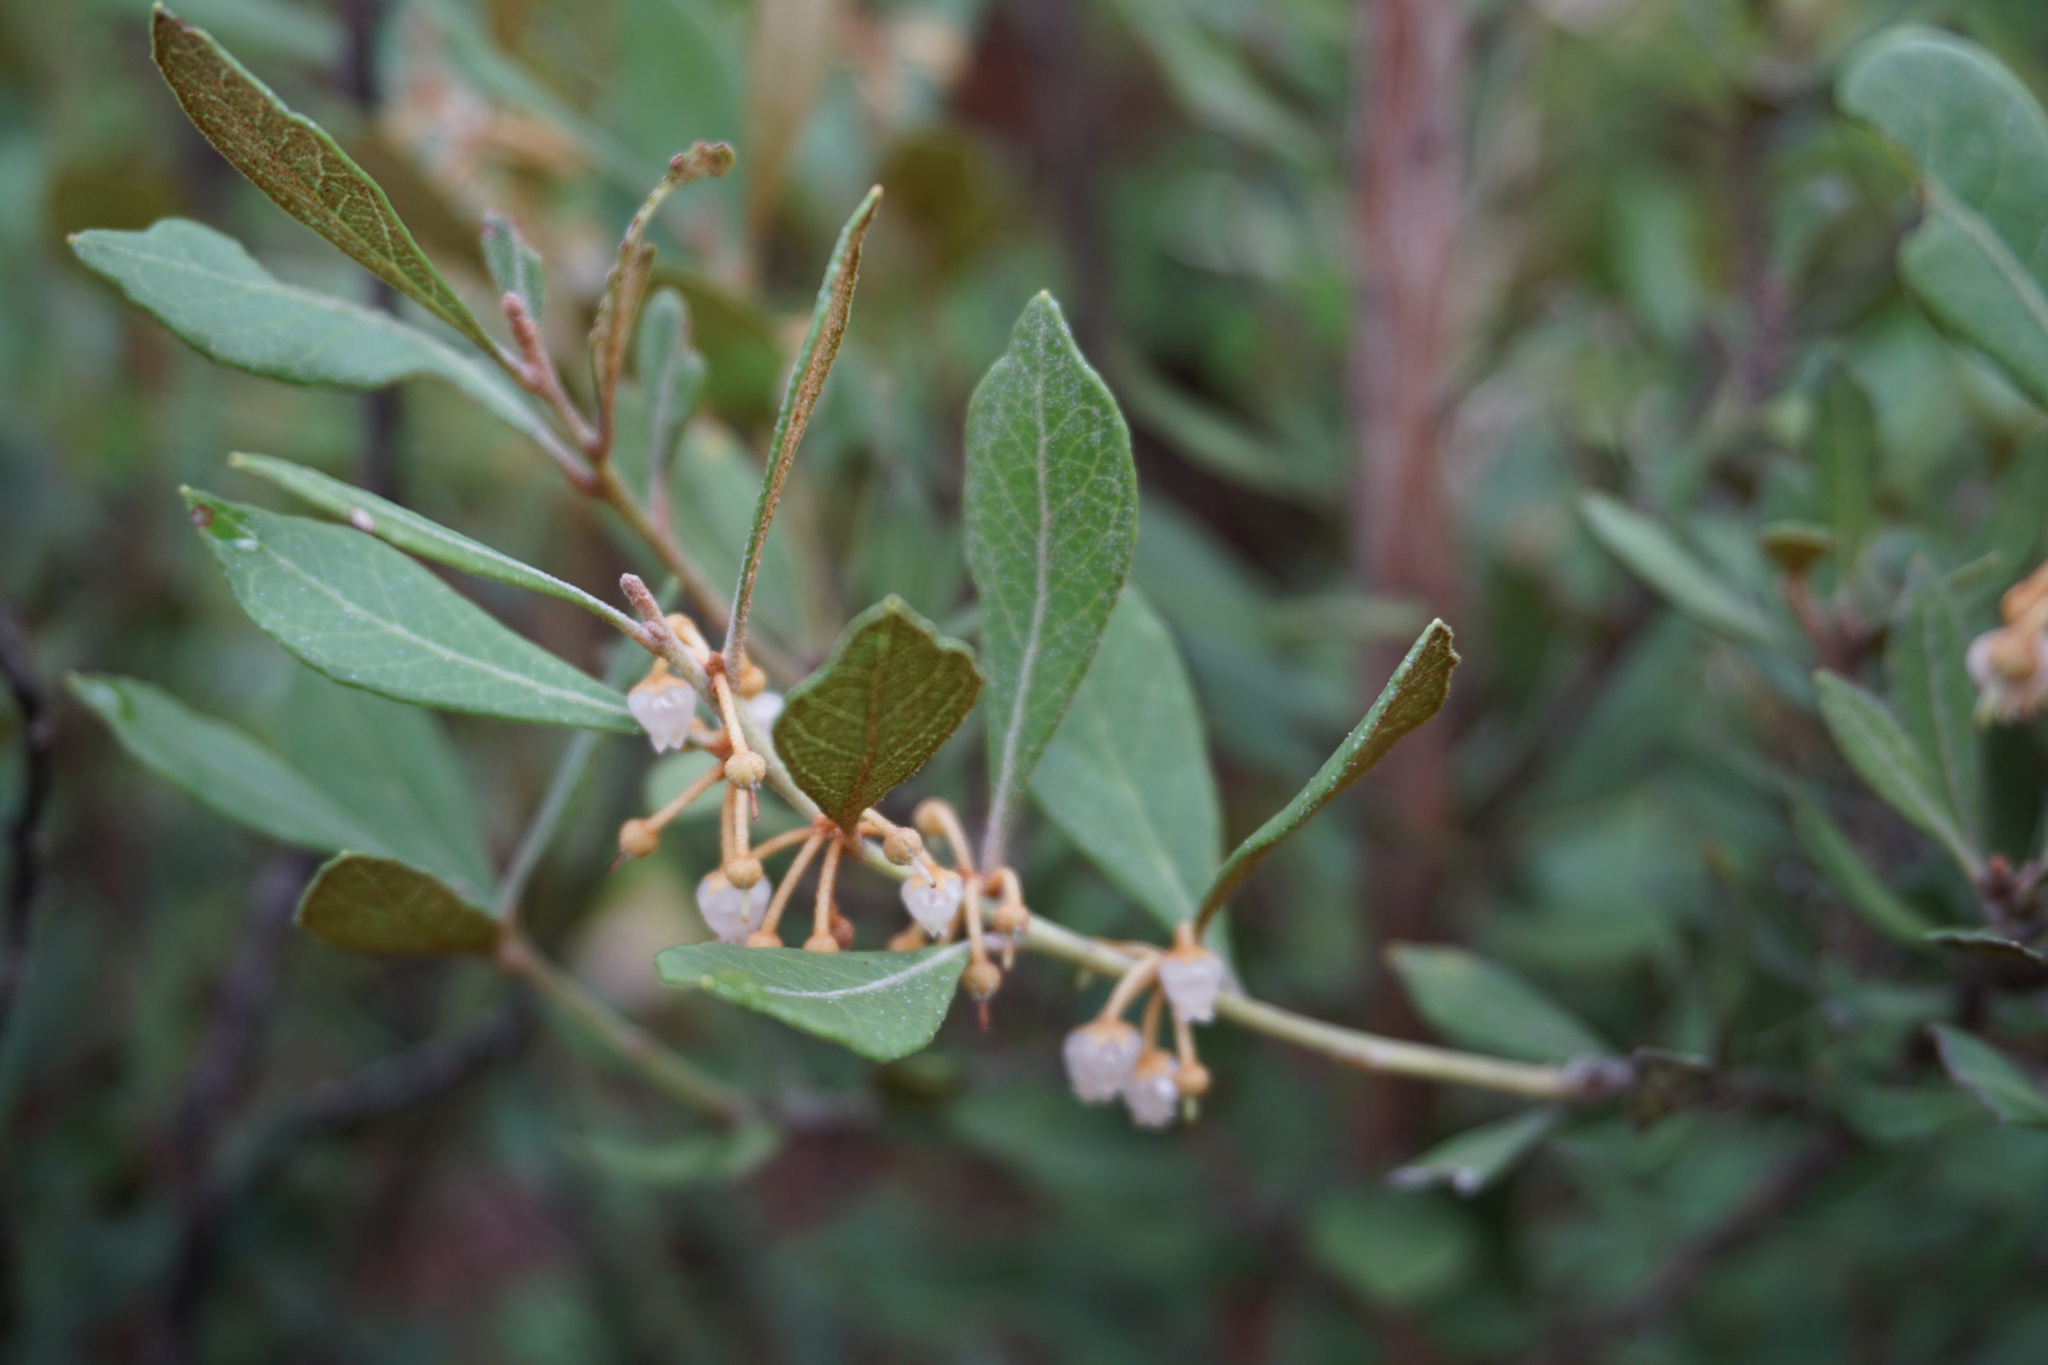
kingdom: Plantae
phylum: Tracheophyta
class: Magnoliopsida
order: Ericales
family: Ericaceae
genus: Lyonia
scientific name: Lyonia ferruginea
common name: Rusty lyonia
